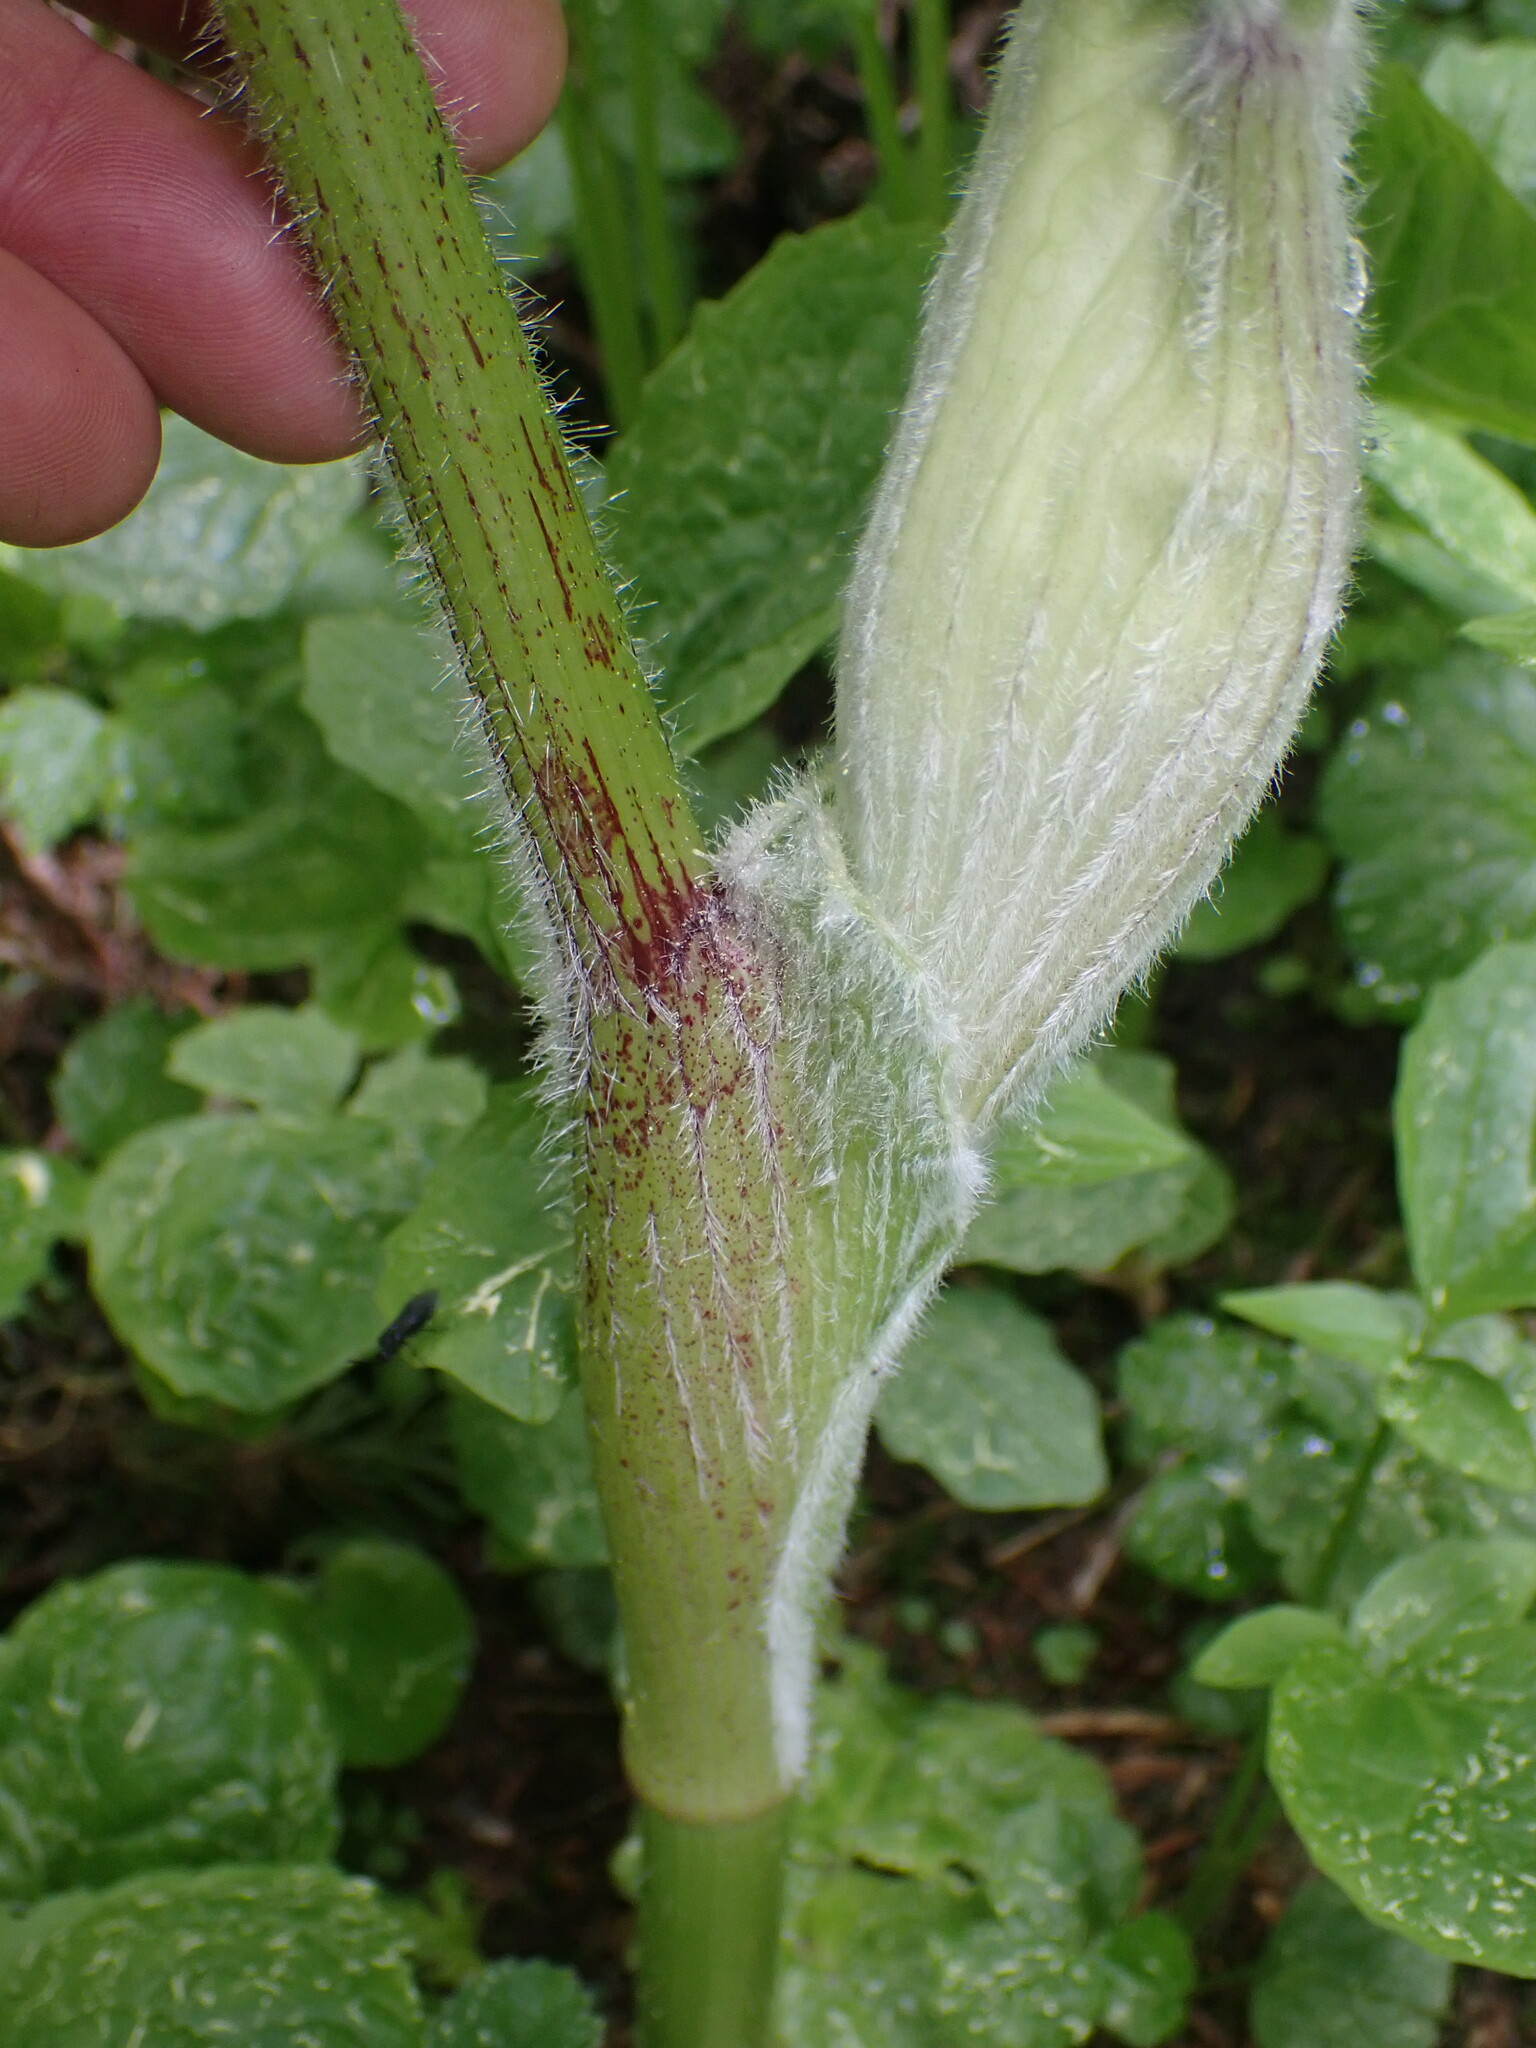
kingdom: Plantae
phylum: Tracheophyta
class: Magnoliopsida
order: Apiales
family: Apiaceae
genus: Heracleum
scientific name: Heracleum maximum
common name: American cow parsnip
